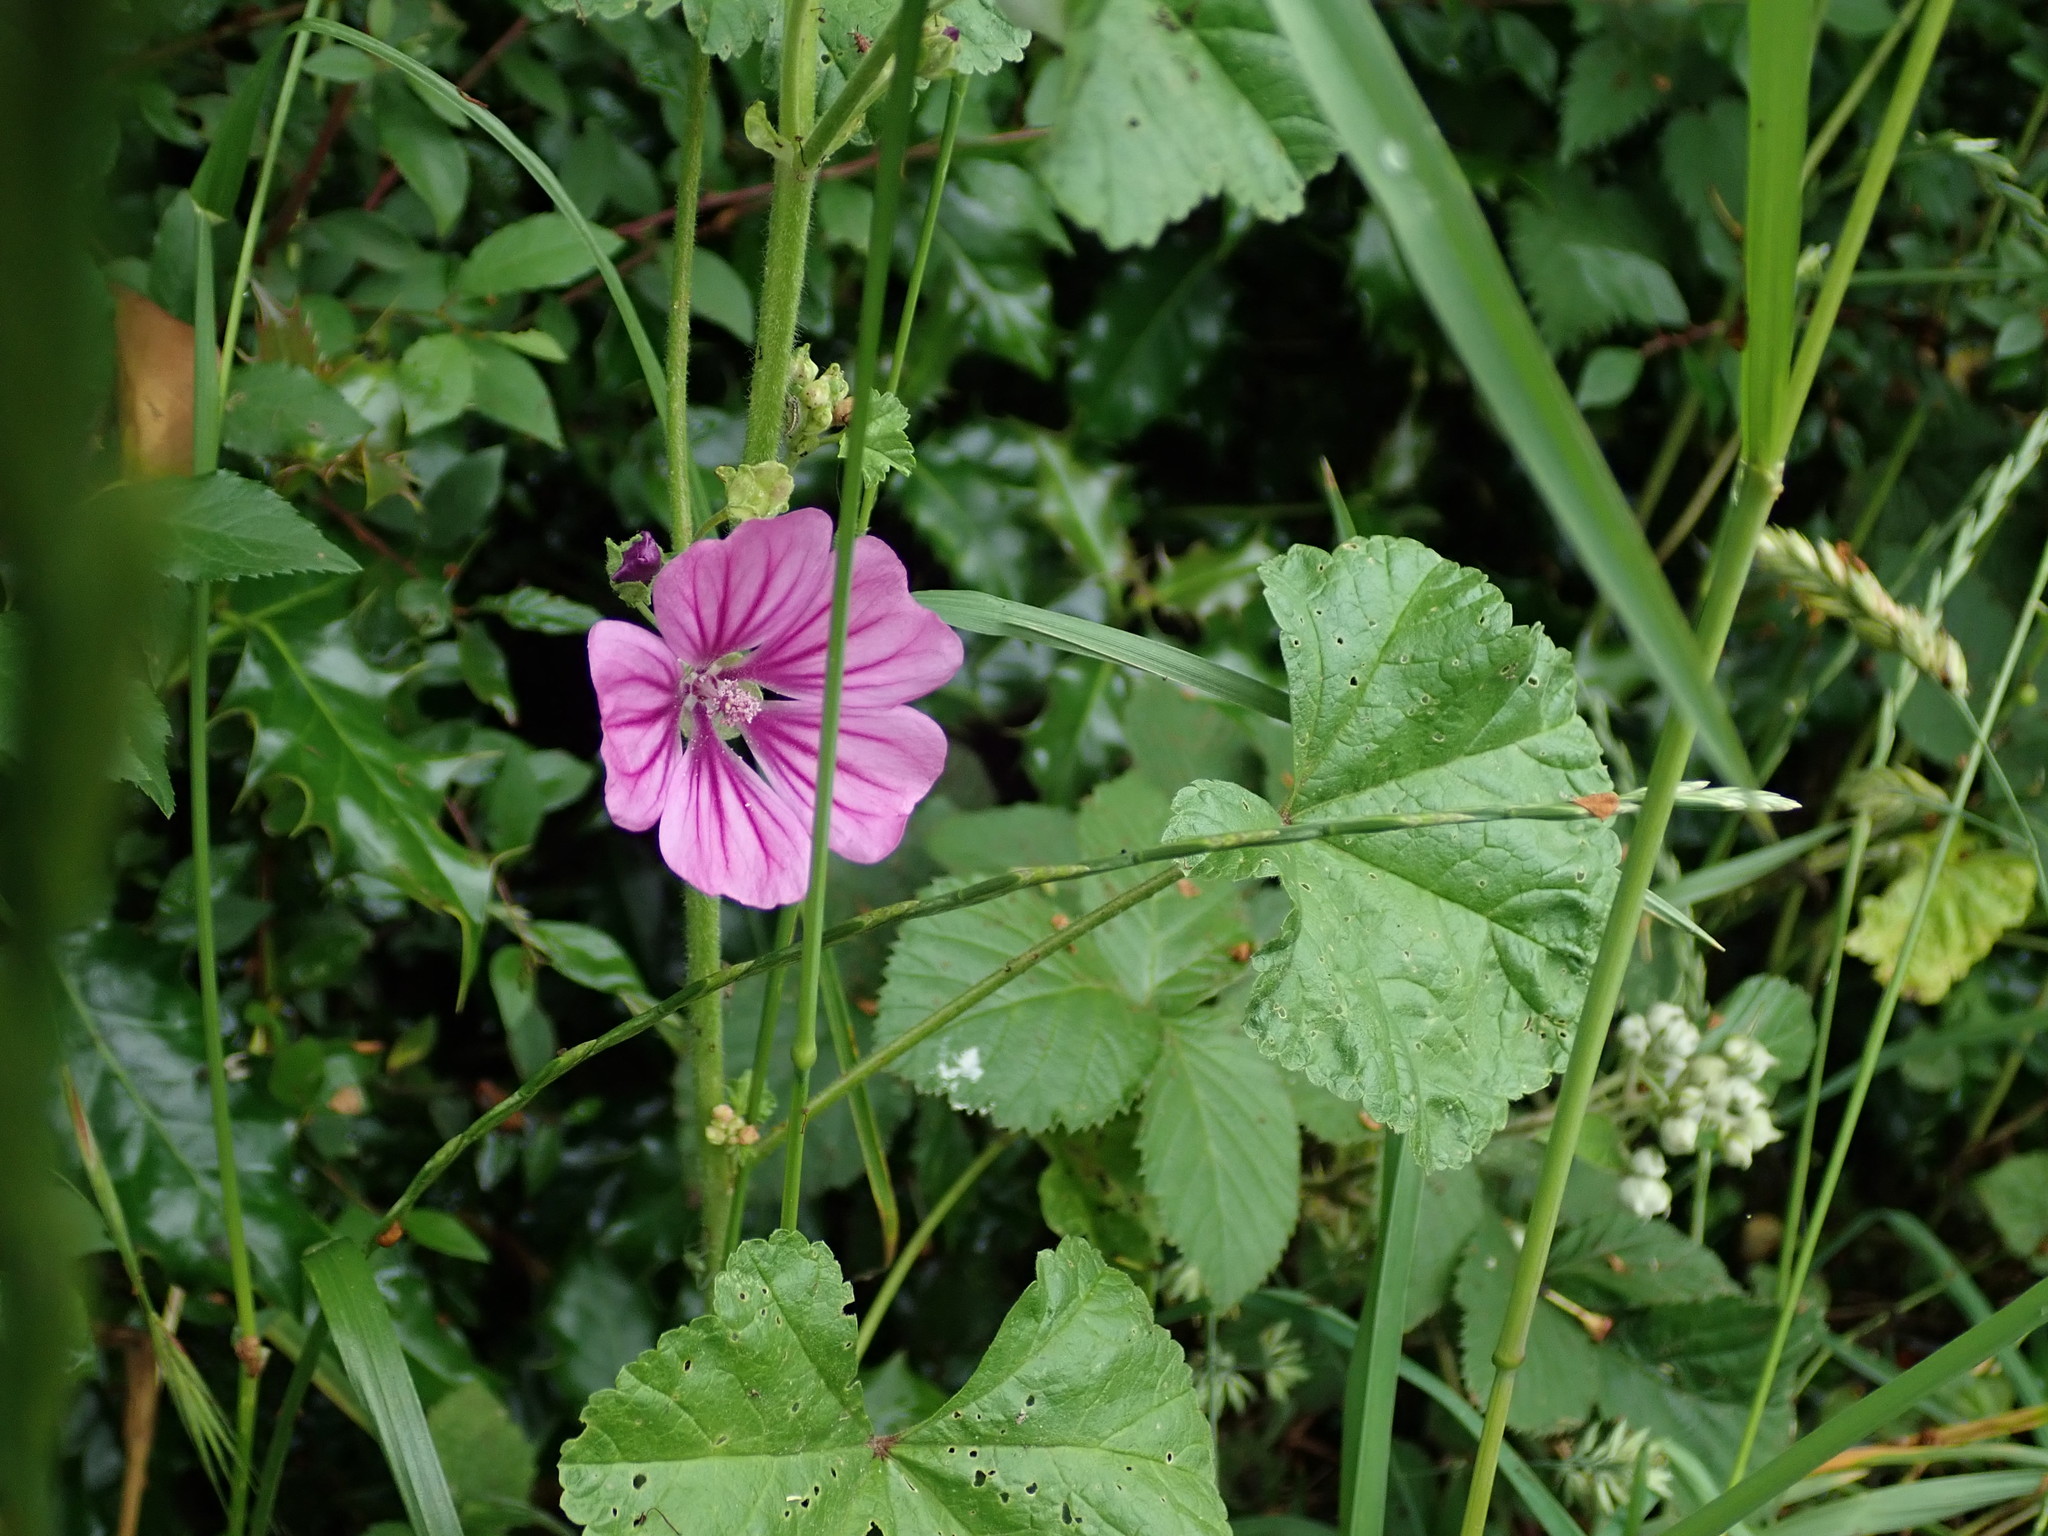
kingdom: Plantae
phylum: Tracheophyta
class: Magnoliopsida
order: Malvales
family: Malvaceae
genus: Malva
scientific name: Malva sylvestris
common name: Common mallow
